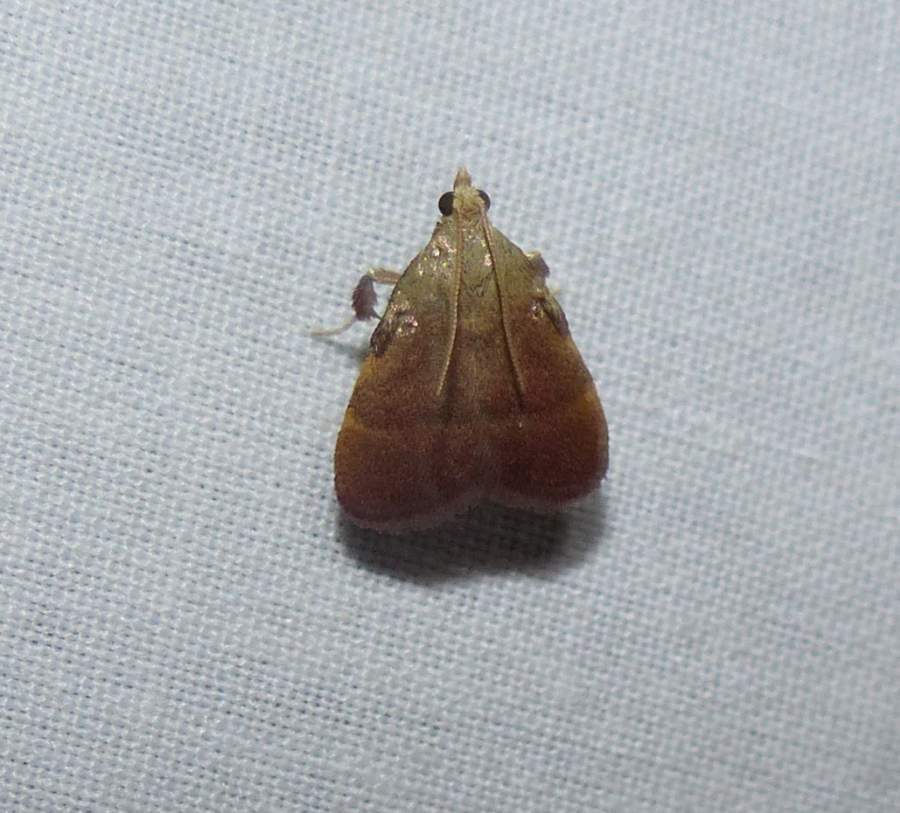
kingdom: Animalia
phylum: Arthropoda
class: Insecta
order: Lepidoptera
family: Pyralidae
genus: Condylolomia
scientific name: Condylolomia participialis
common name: Drab condylolomia moth
